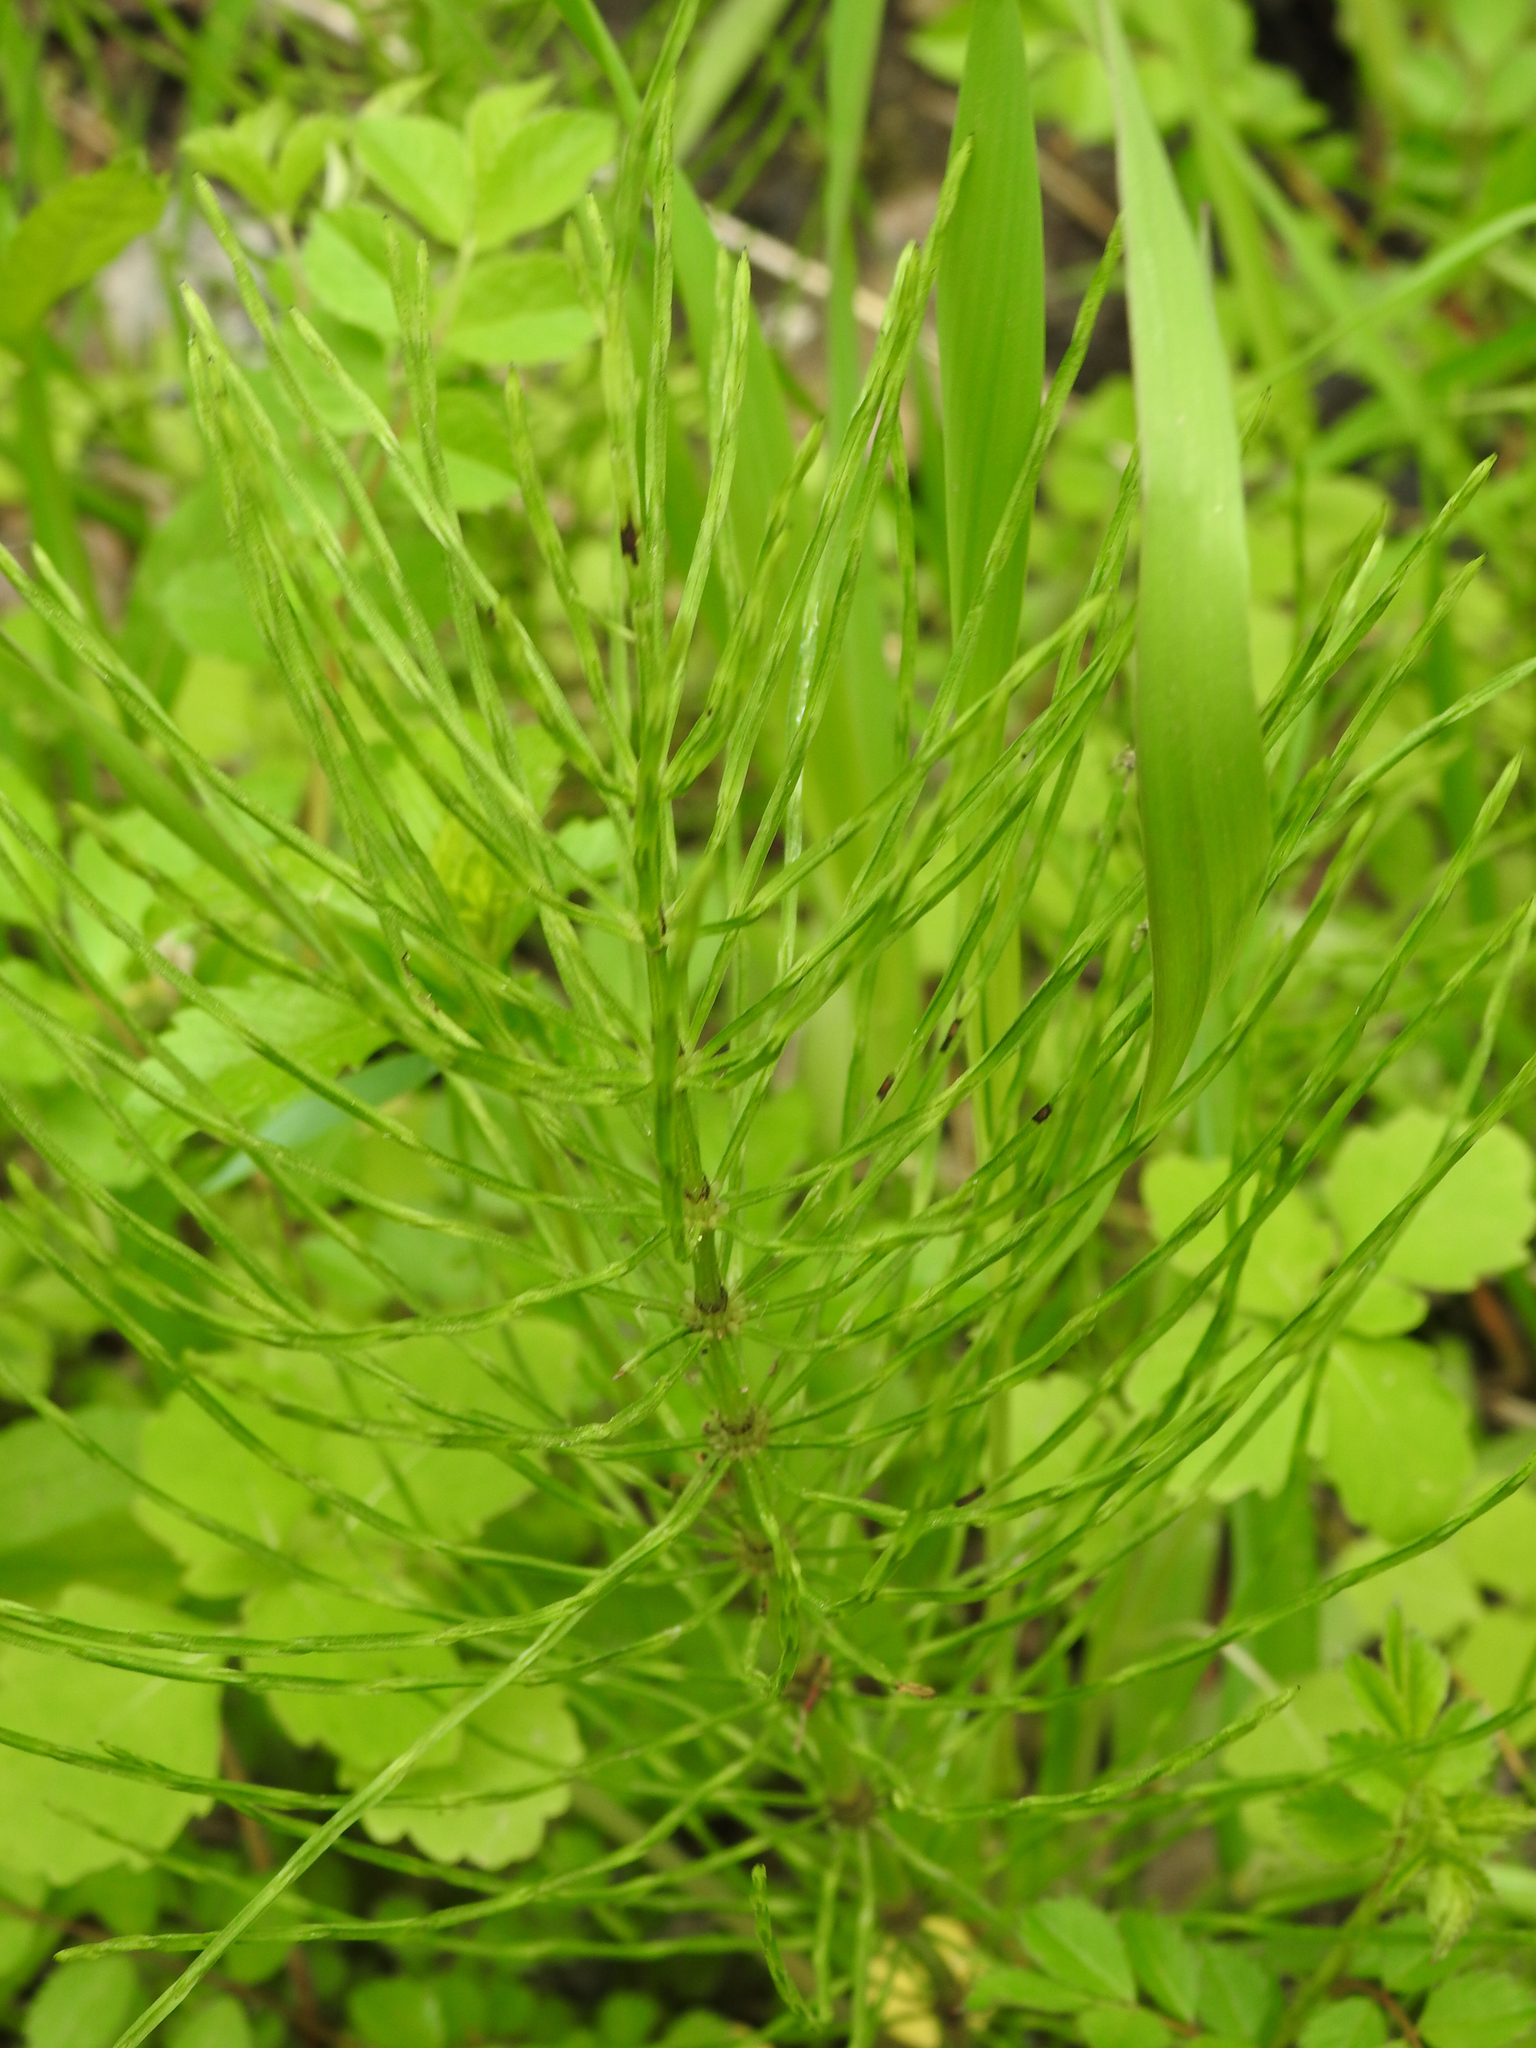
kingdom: Plantae
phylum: Tracheophyta
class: Polypodiopsida
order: Equisetales
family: Equisetaceae
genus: Equisetum
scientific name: Equisetum arvense
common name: Field horsetail
